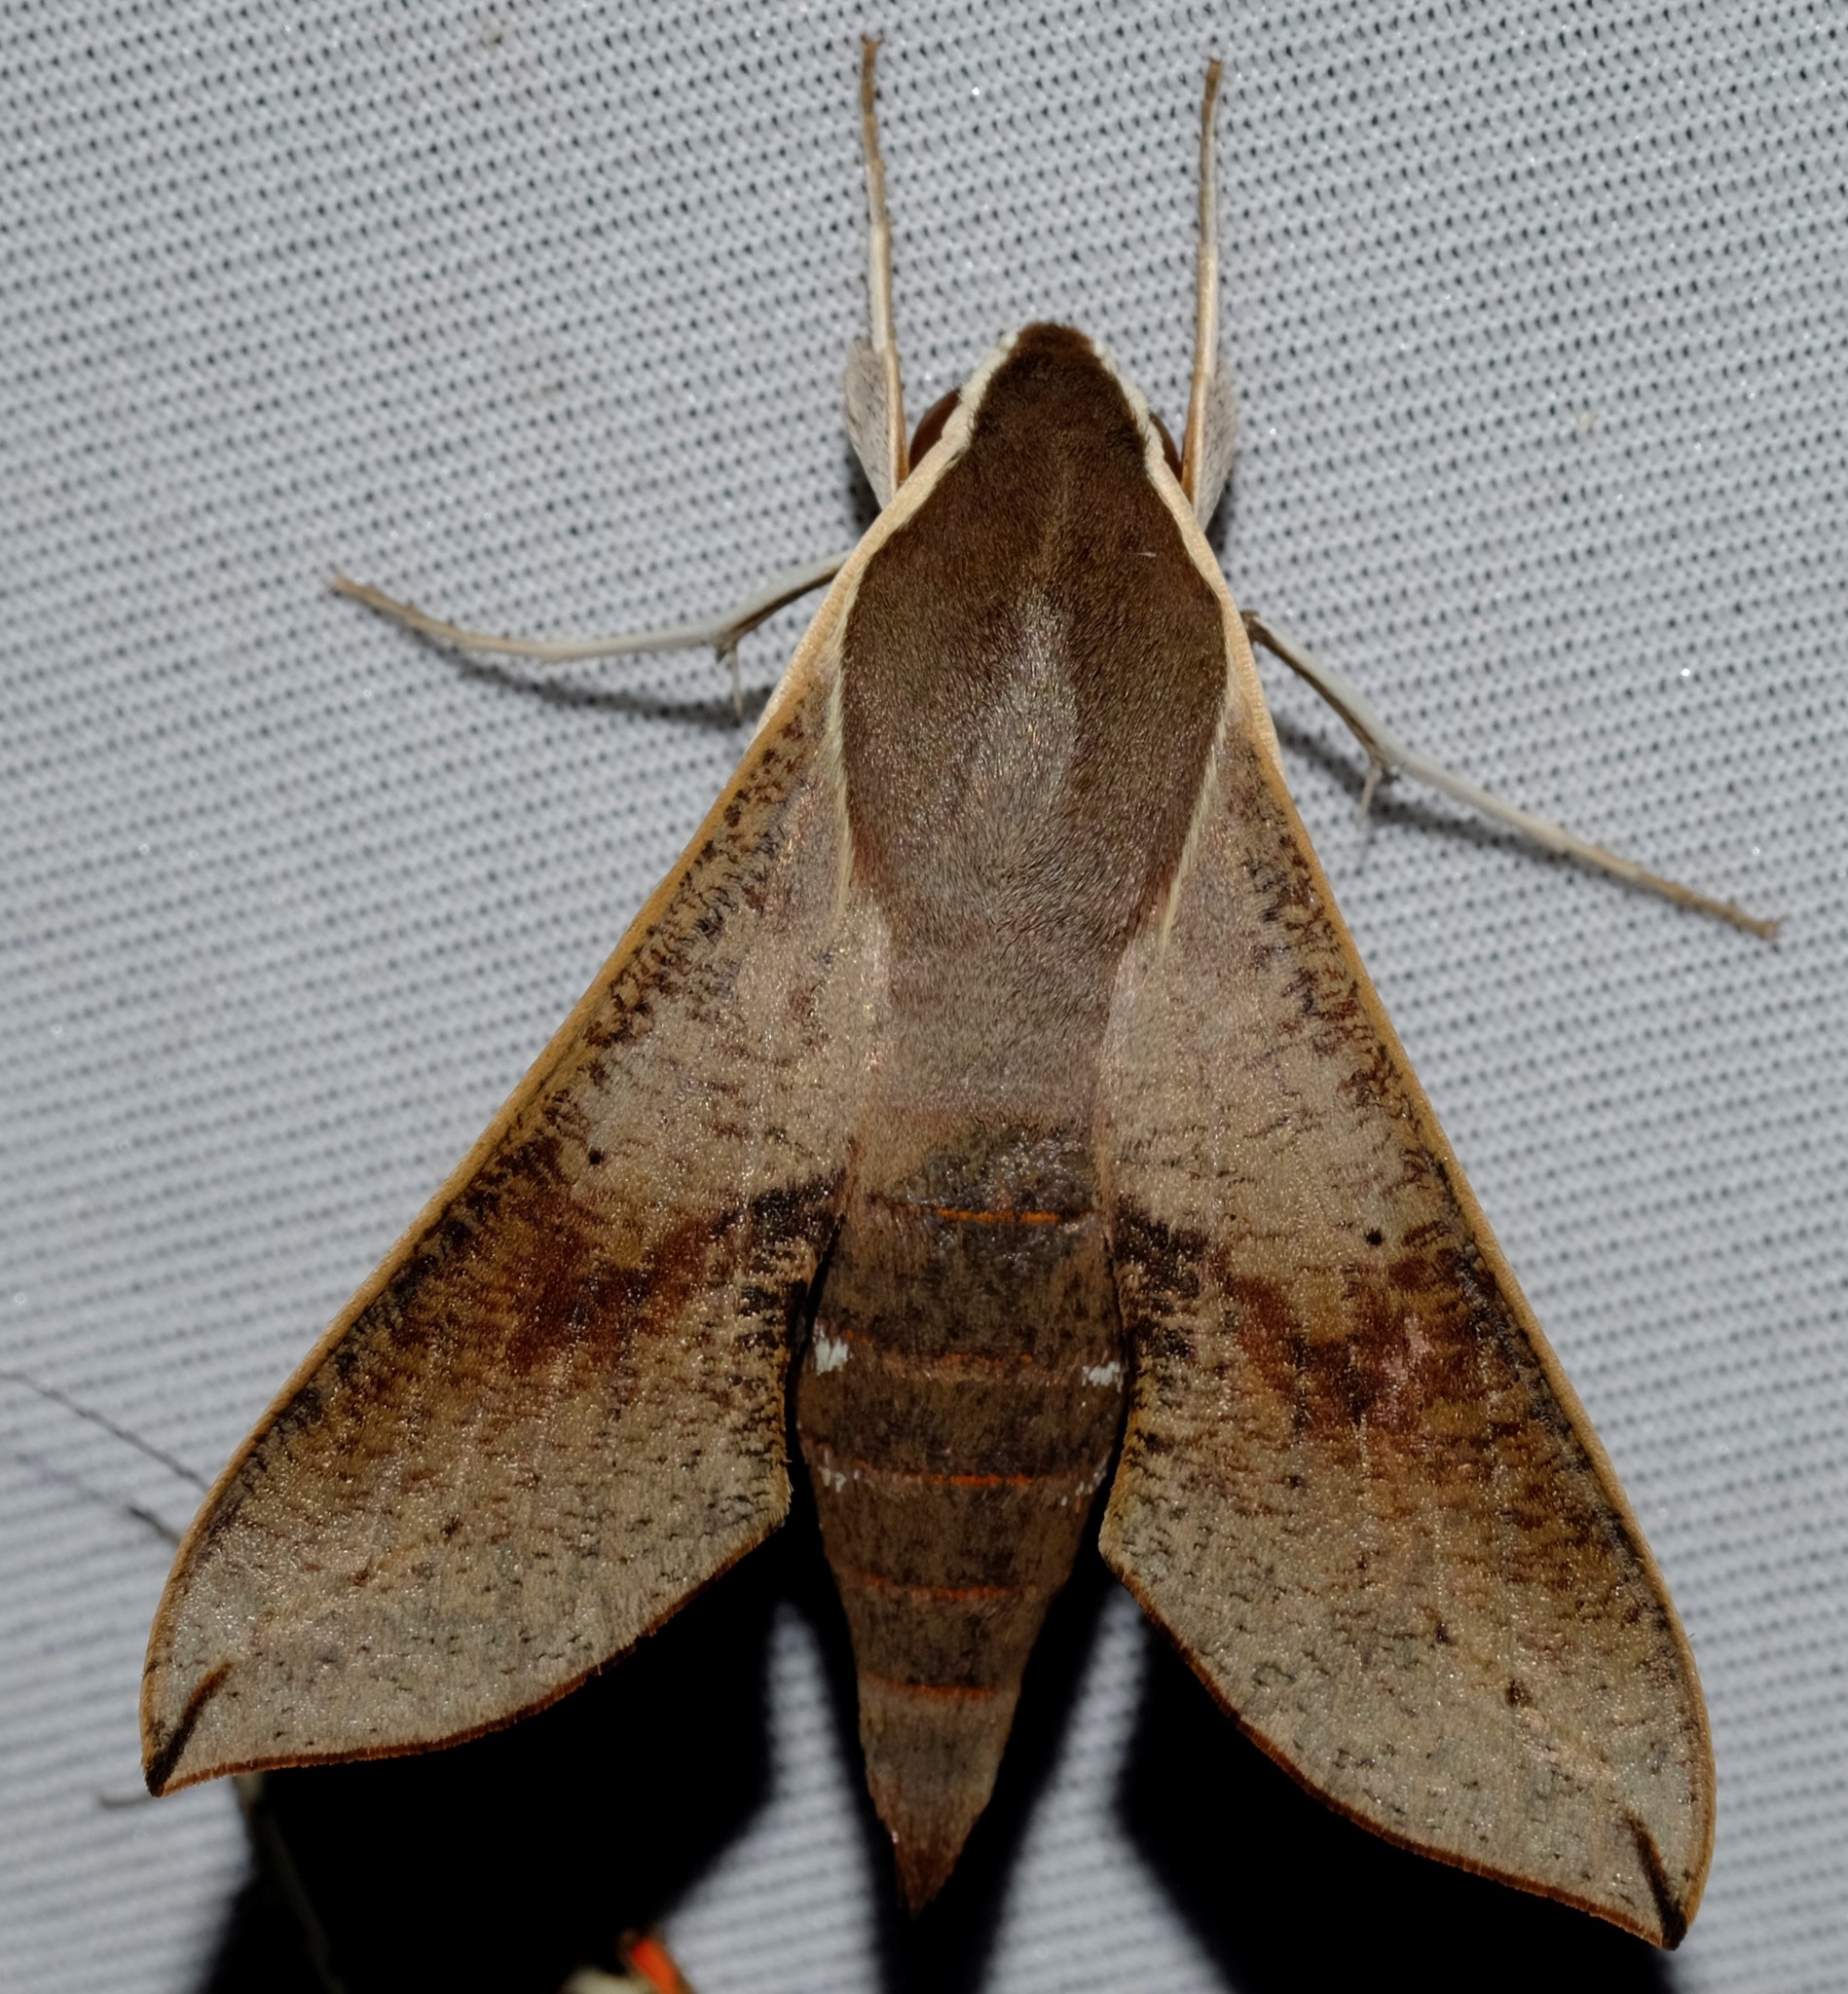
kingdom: Animalia
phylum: Arthropoda
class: Insecta
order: Lepidoptera
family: Sphingidae
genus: Hippotion
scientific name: Hippotion scrofa
